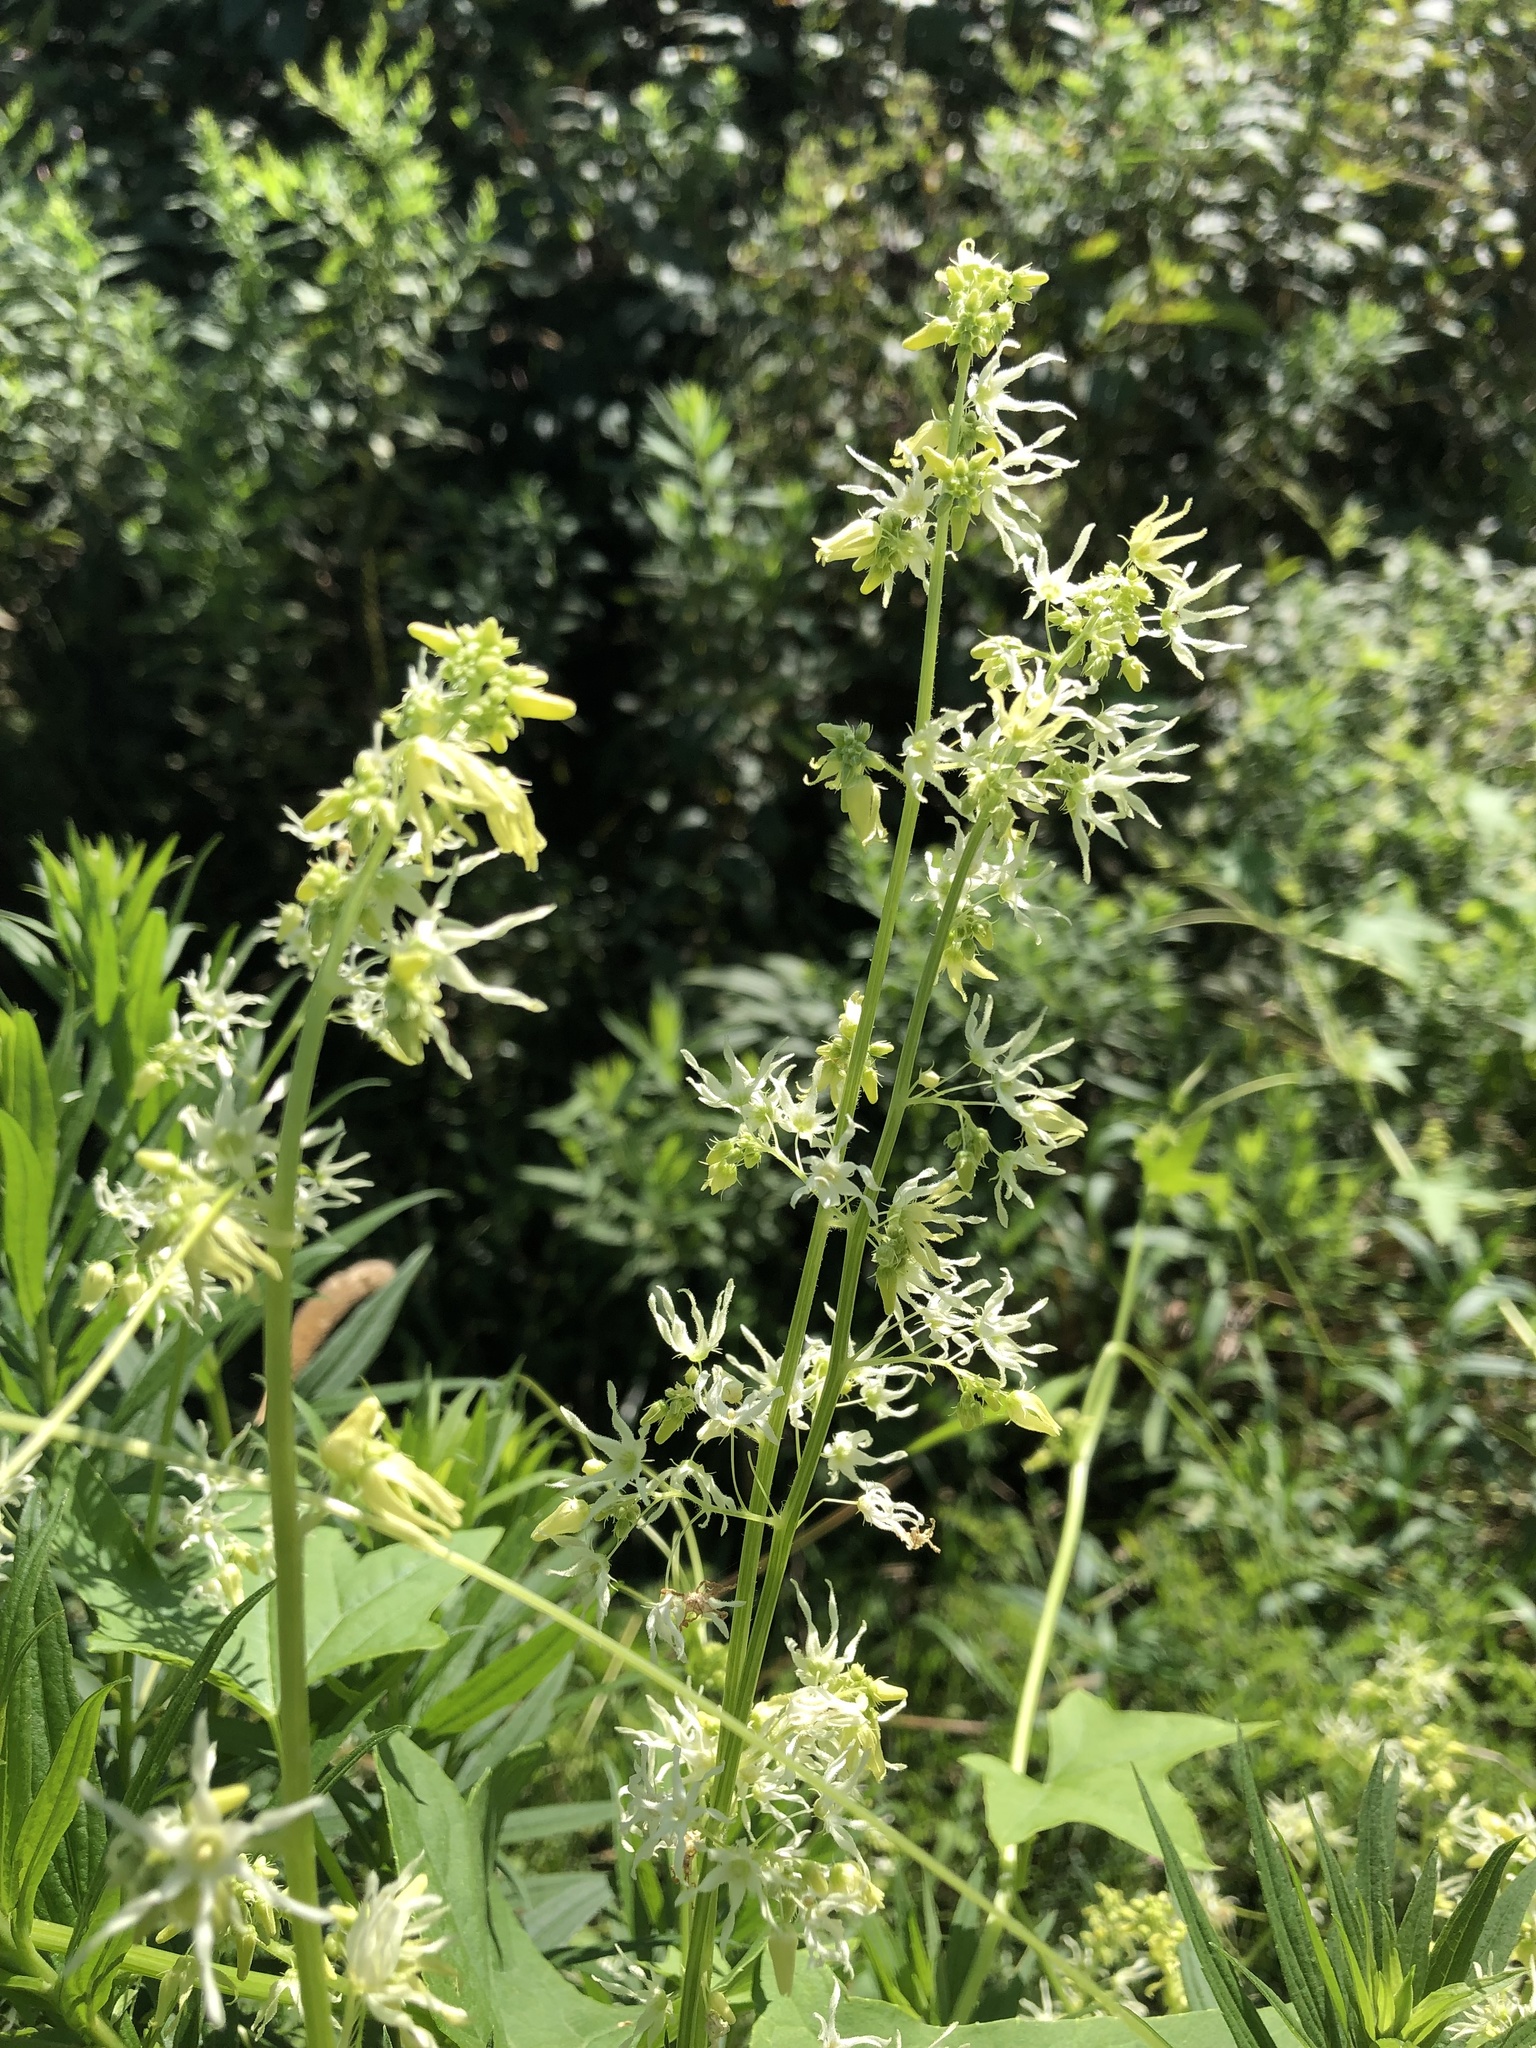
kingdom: Plantae
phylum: Tracheophyta
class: Magnoliopsida
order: Cucurbitales
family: Cucurbitaceae
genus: Echinocystis
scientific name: Echinocystis lobata
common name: Wild cucumber
